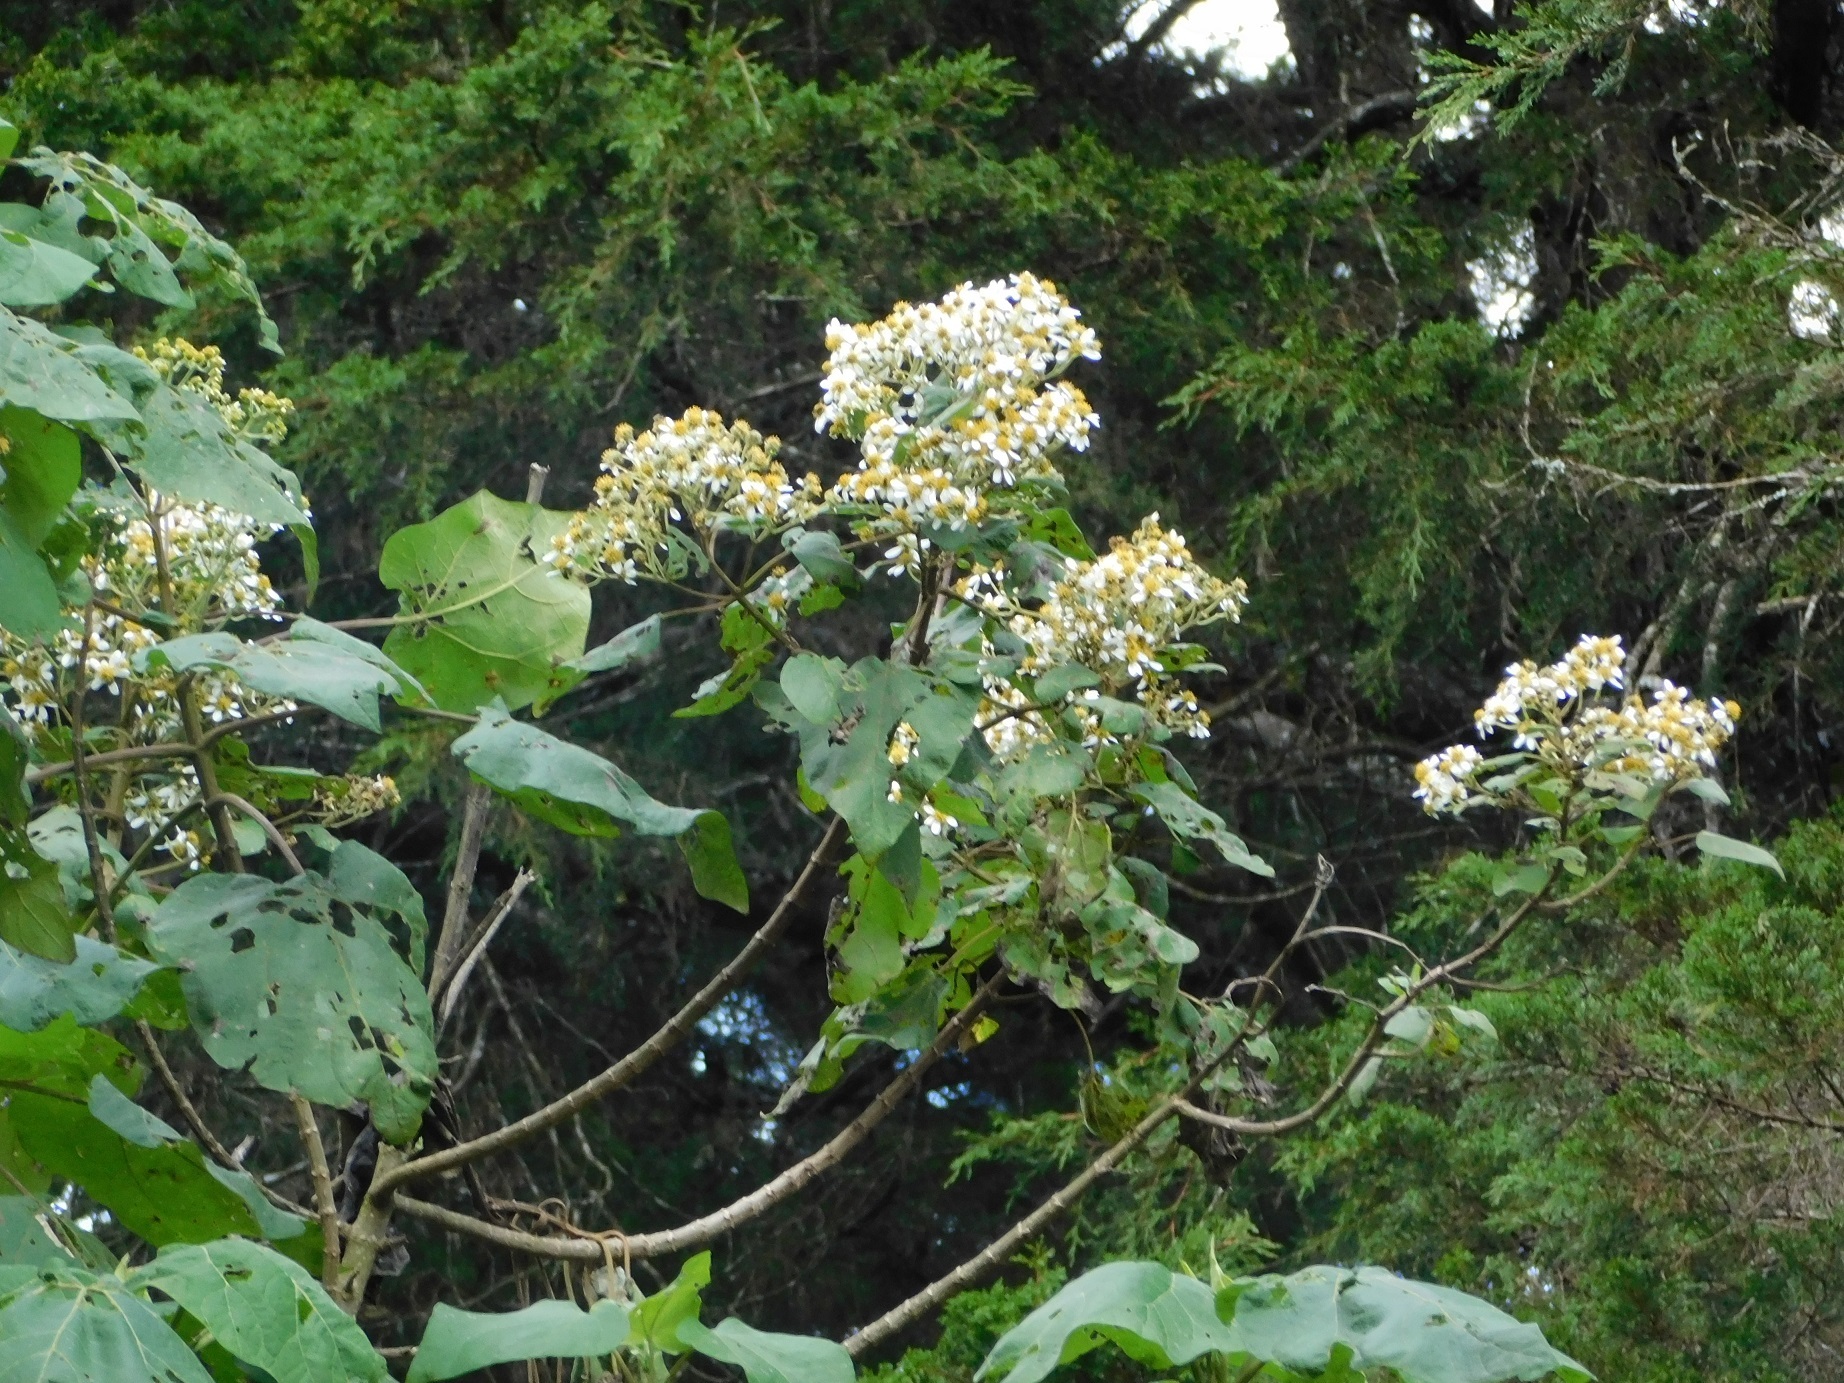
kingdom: Plantae
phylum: Tracheophyta
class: Magnoliopsida
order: Asterales
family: Asteraceae
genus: Montanoa
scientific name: Montanoa quadrangularis
